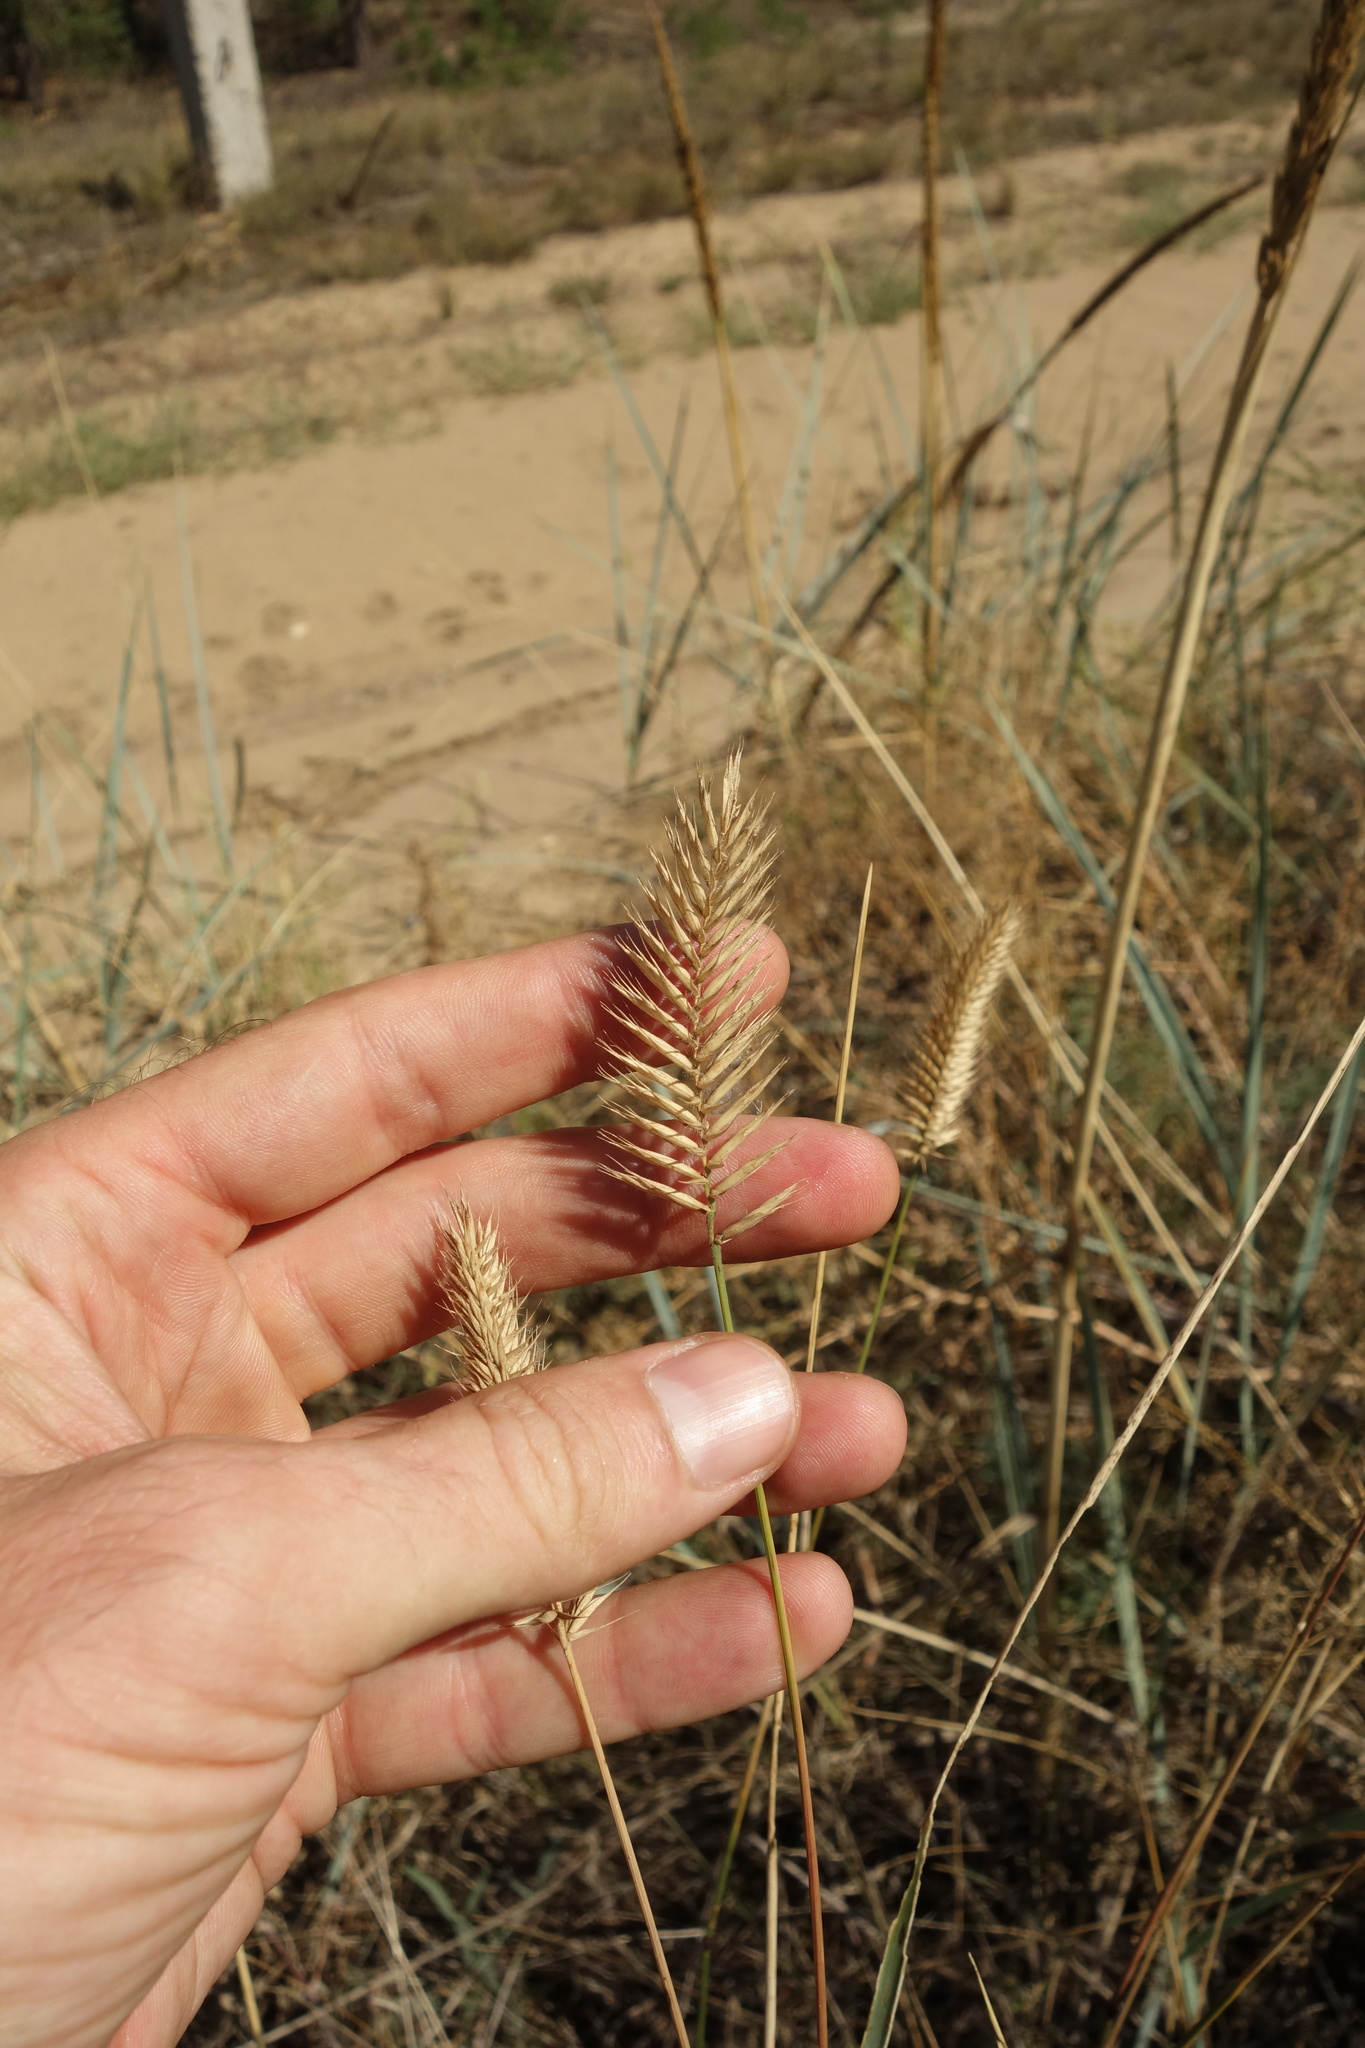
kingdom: Plantae
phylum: Tracheophyta
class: Liliopsida
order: Poales
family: Poaceae
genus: Agropyron
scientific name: Agropyron cristatum
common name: Crested wheatgrass
